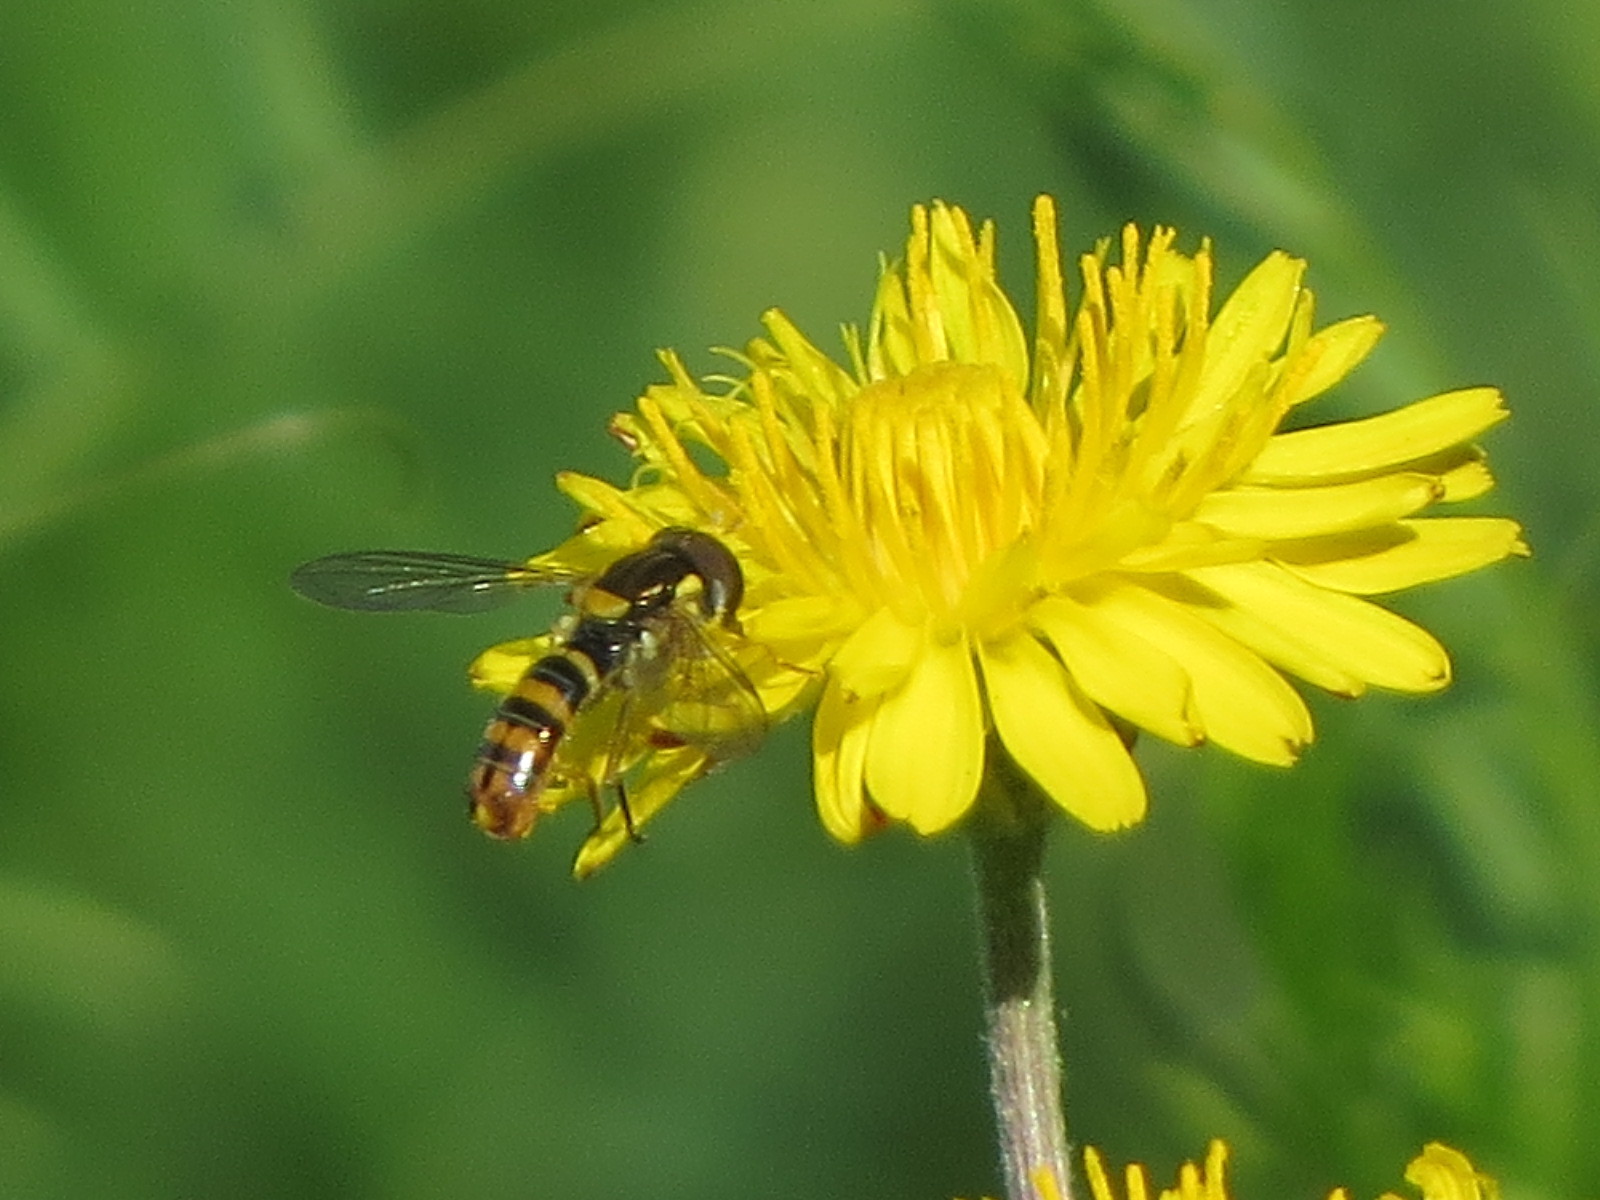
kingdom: Animalia
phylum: Arthropoda
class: Insecta
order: Diptera
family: Syrphidae
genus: Sphaerophoria
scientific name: Sphaerophoria sulphuripes
